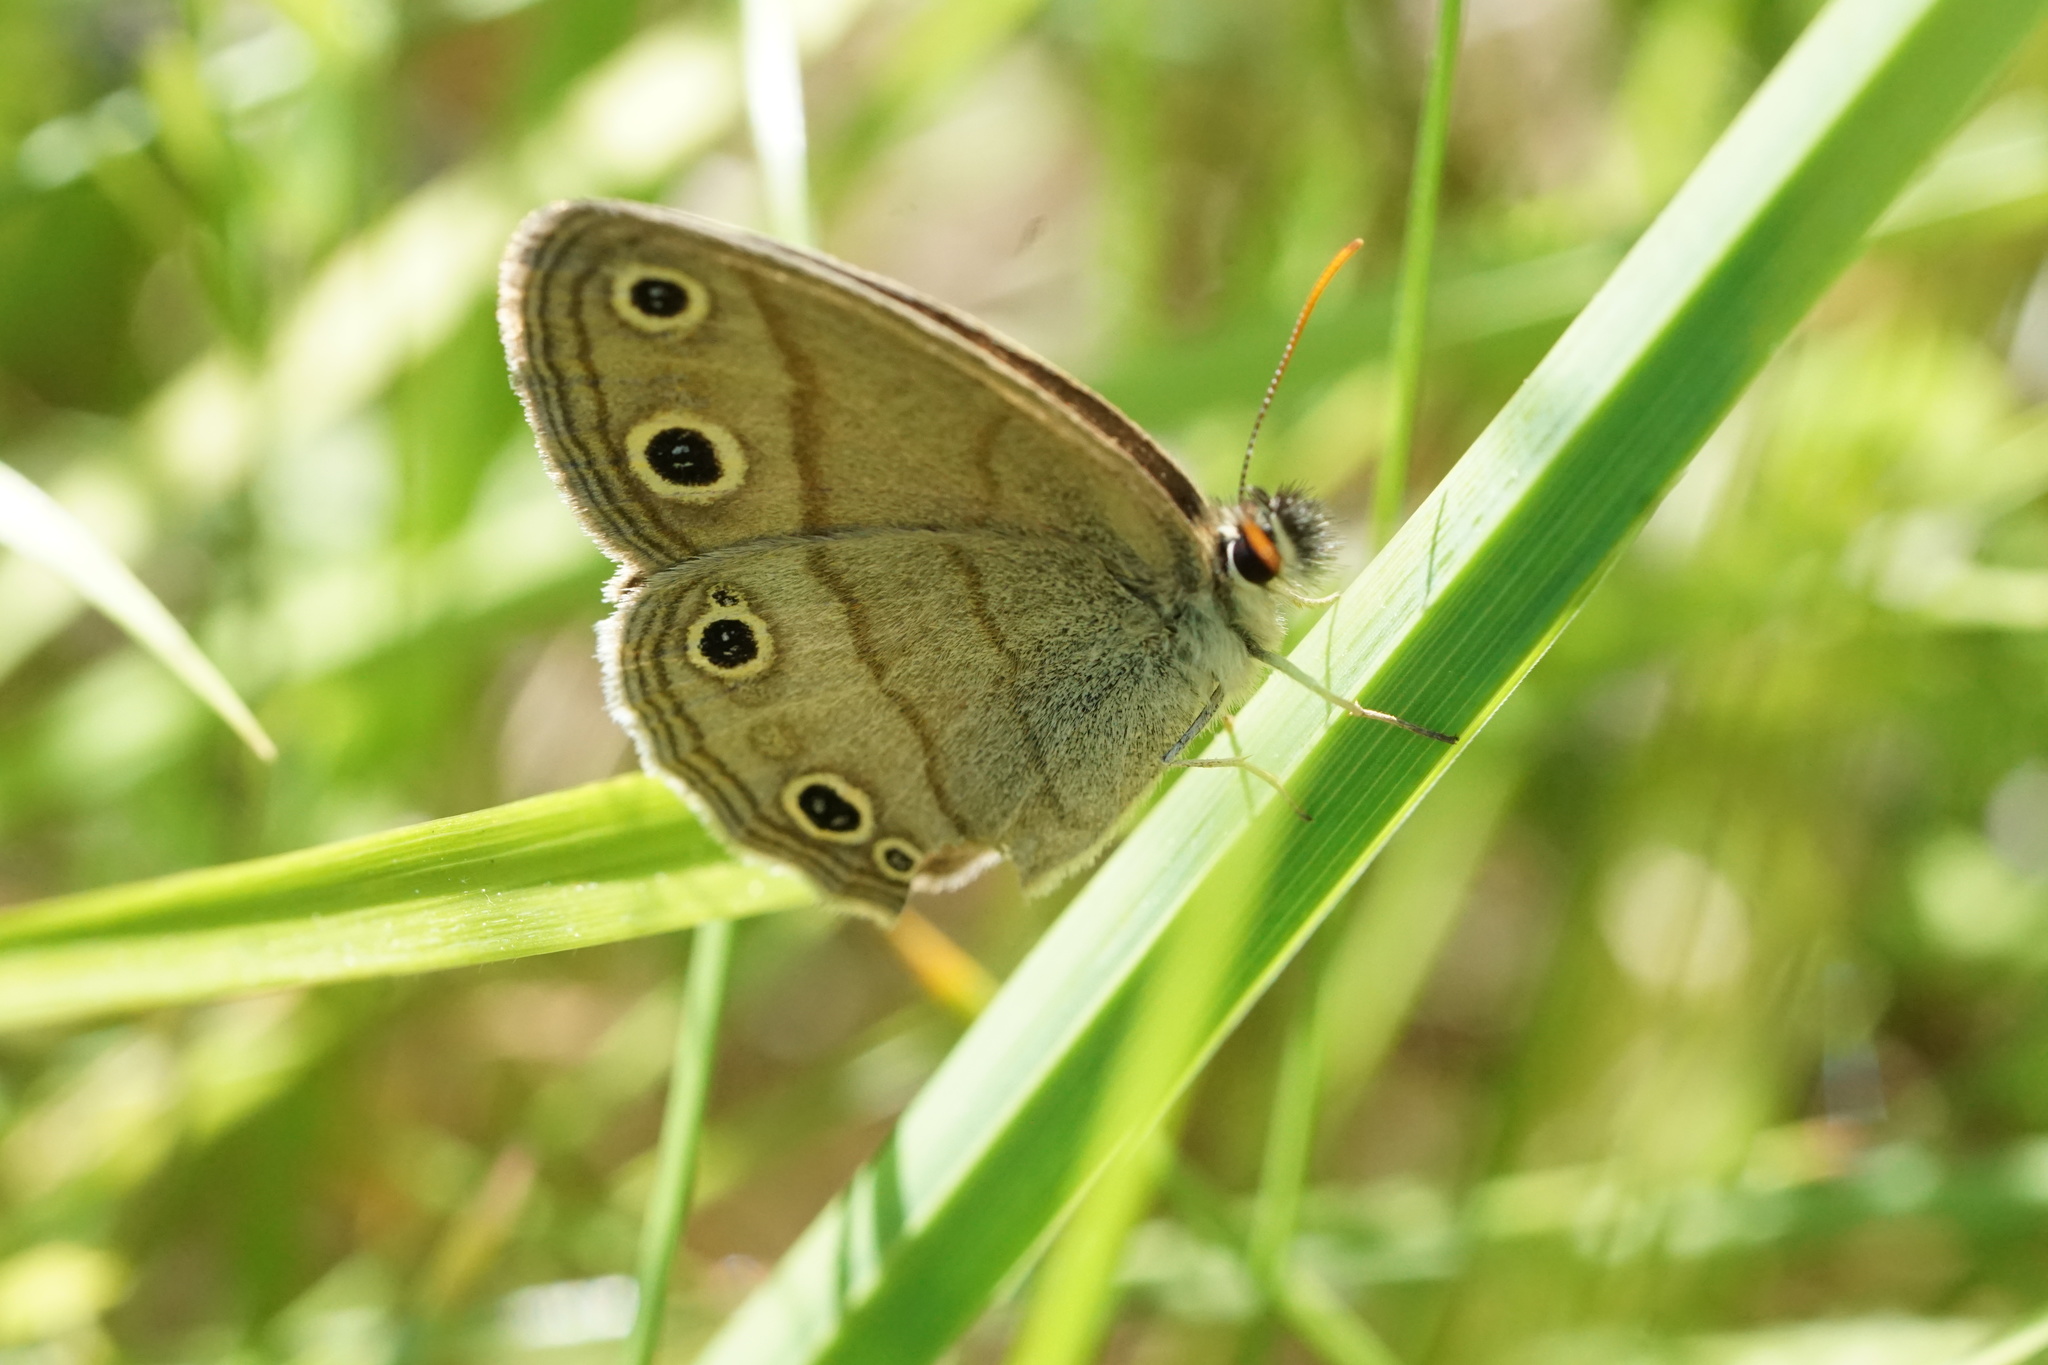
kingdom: Animalia
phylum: Arthropoda
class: Insecta
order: Lepidoptera
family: Nymphalidae
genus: Euptychia
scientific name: Euptychia cymela
